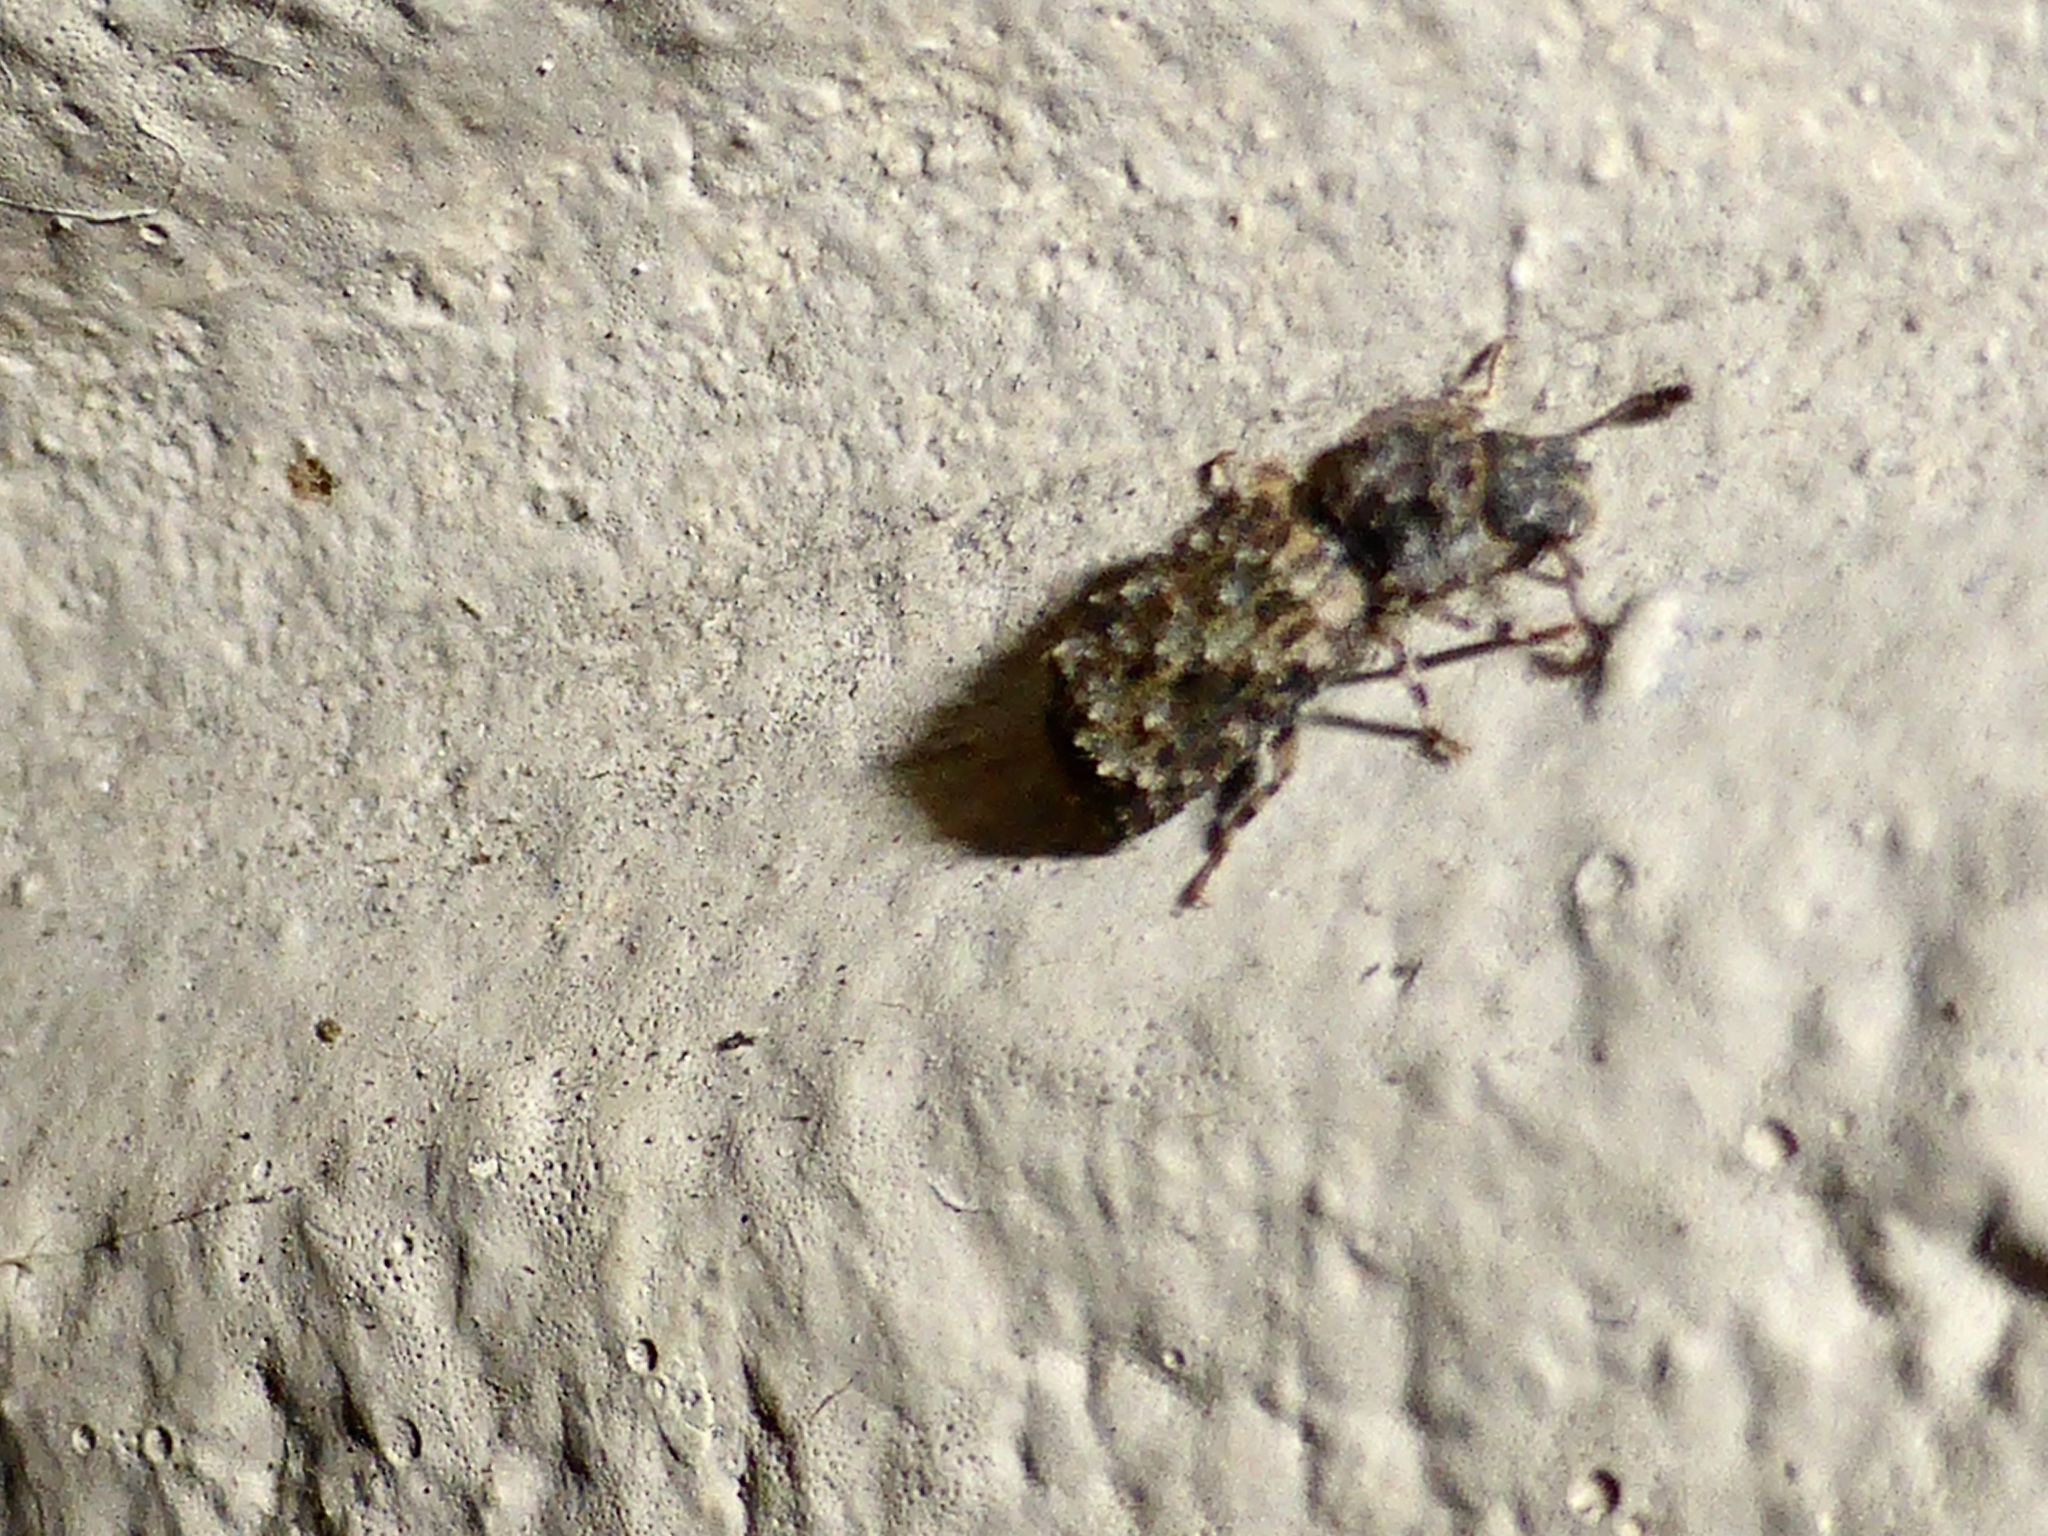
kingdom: Animalia
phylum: Arthropoda
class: Insecta
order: Coleoptera
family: Zopheridae
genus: Pristoderus
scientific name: Pristoderus
